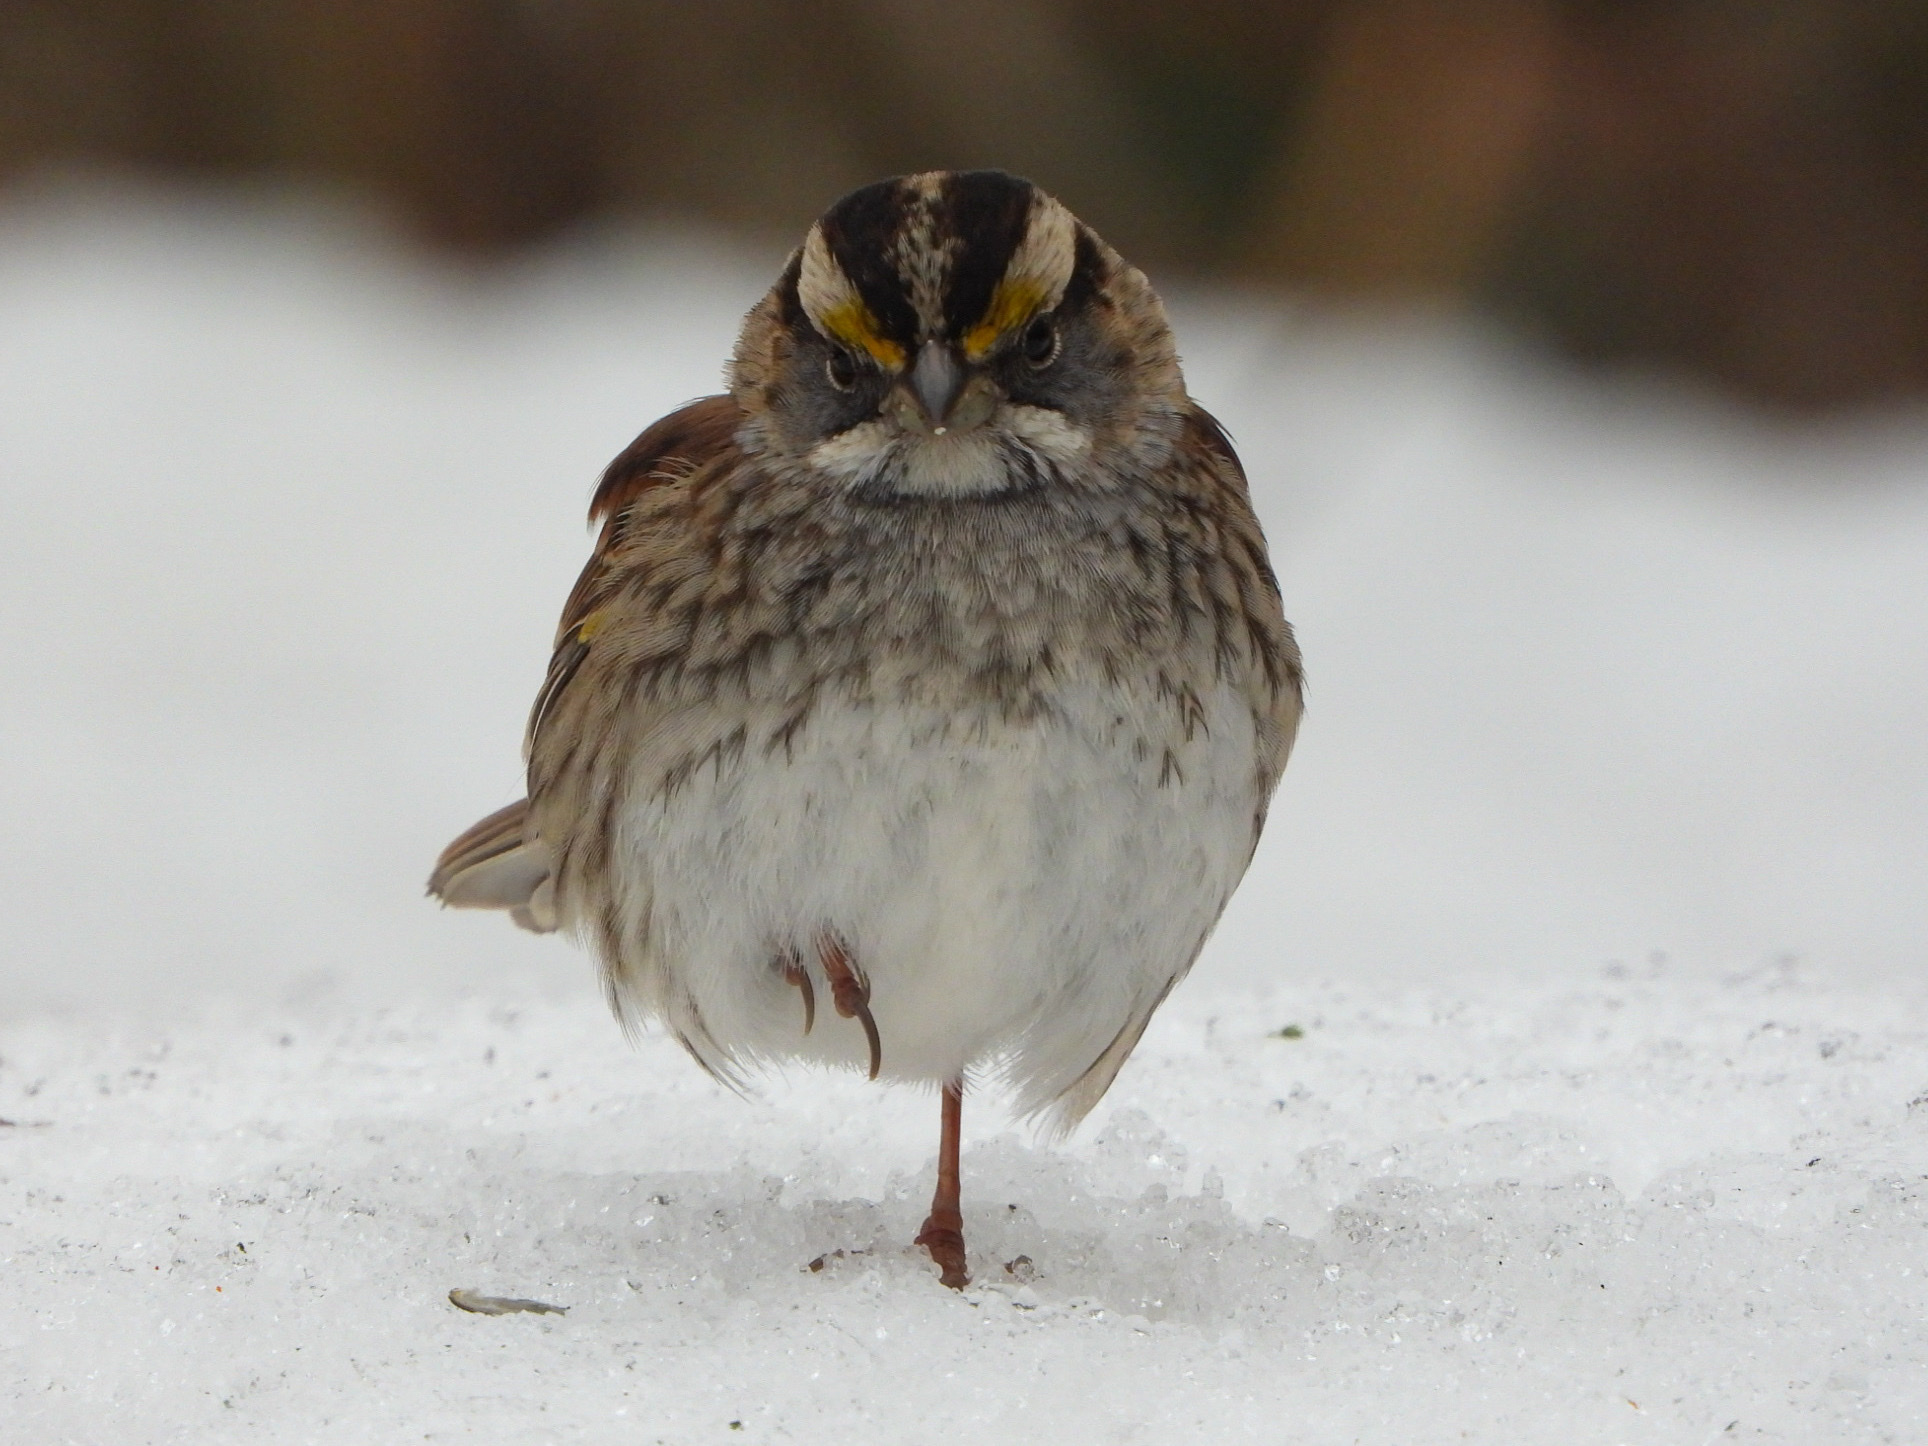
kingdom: Animalia
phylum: Chordata
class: Aves
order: Passeriformes
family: Passerellidae
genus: Zonotrichia
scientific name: Zonotrichia albicollis
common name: White-throated sparrow
